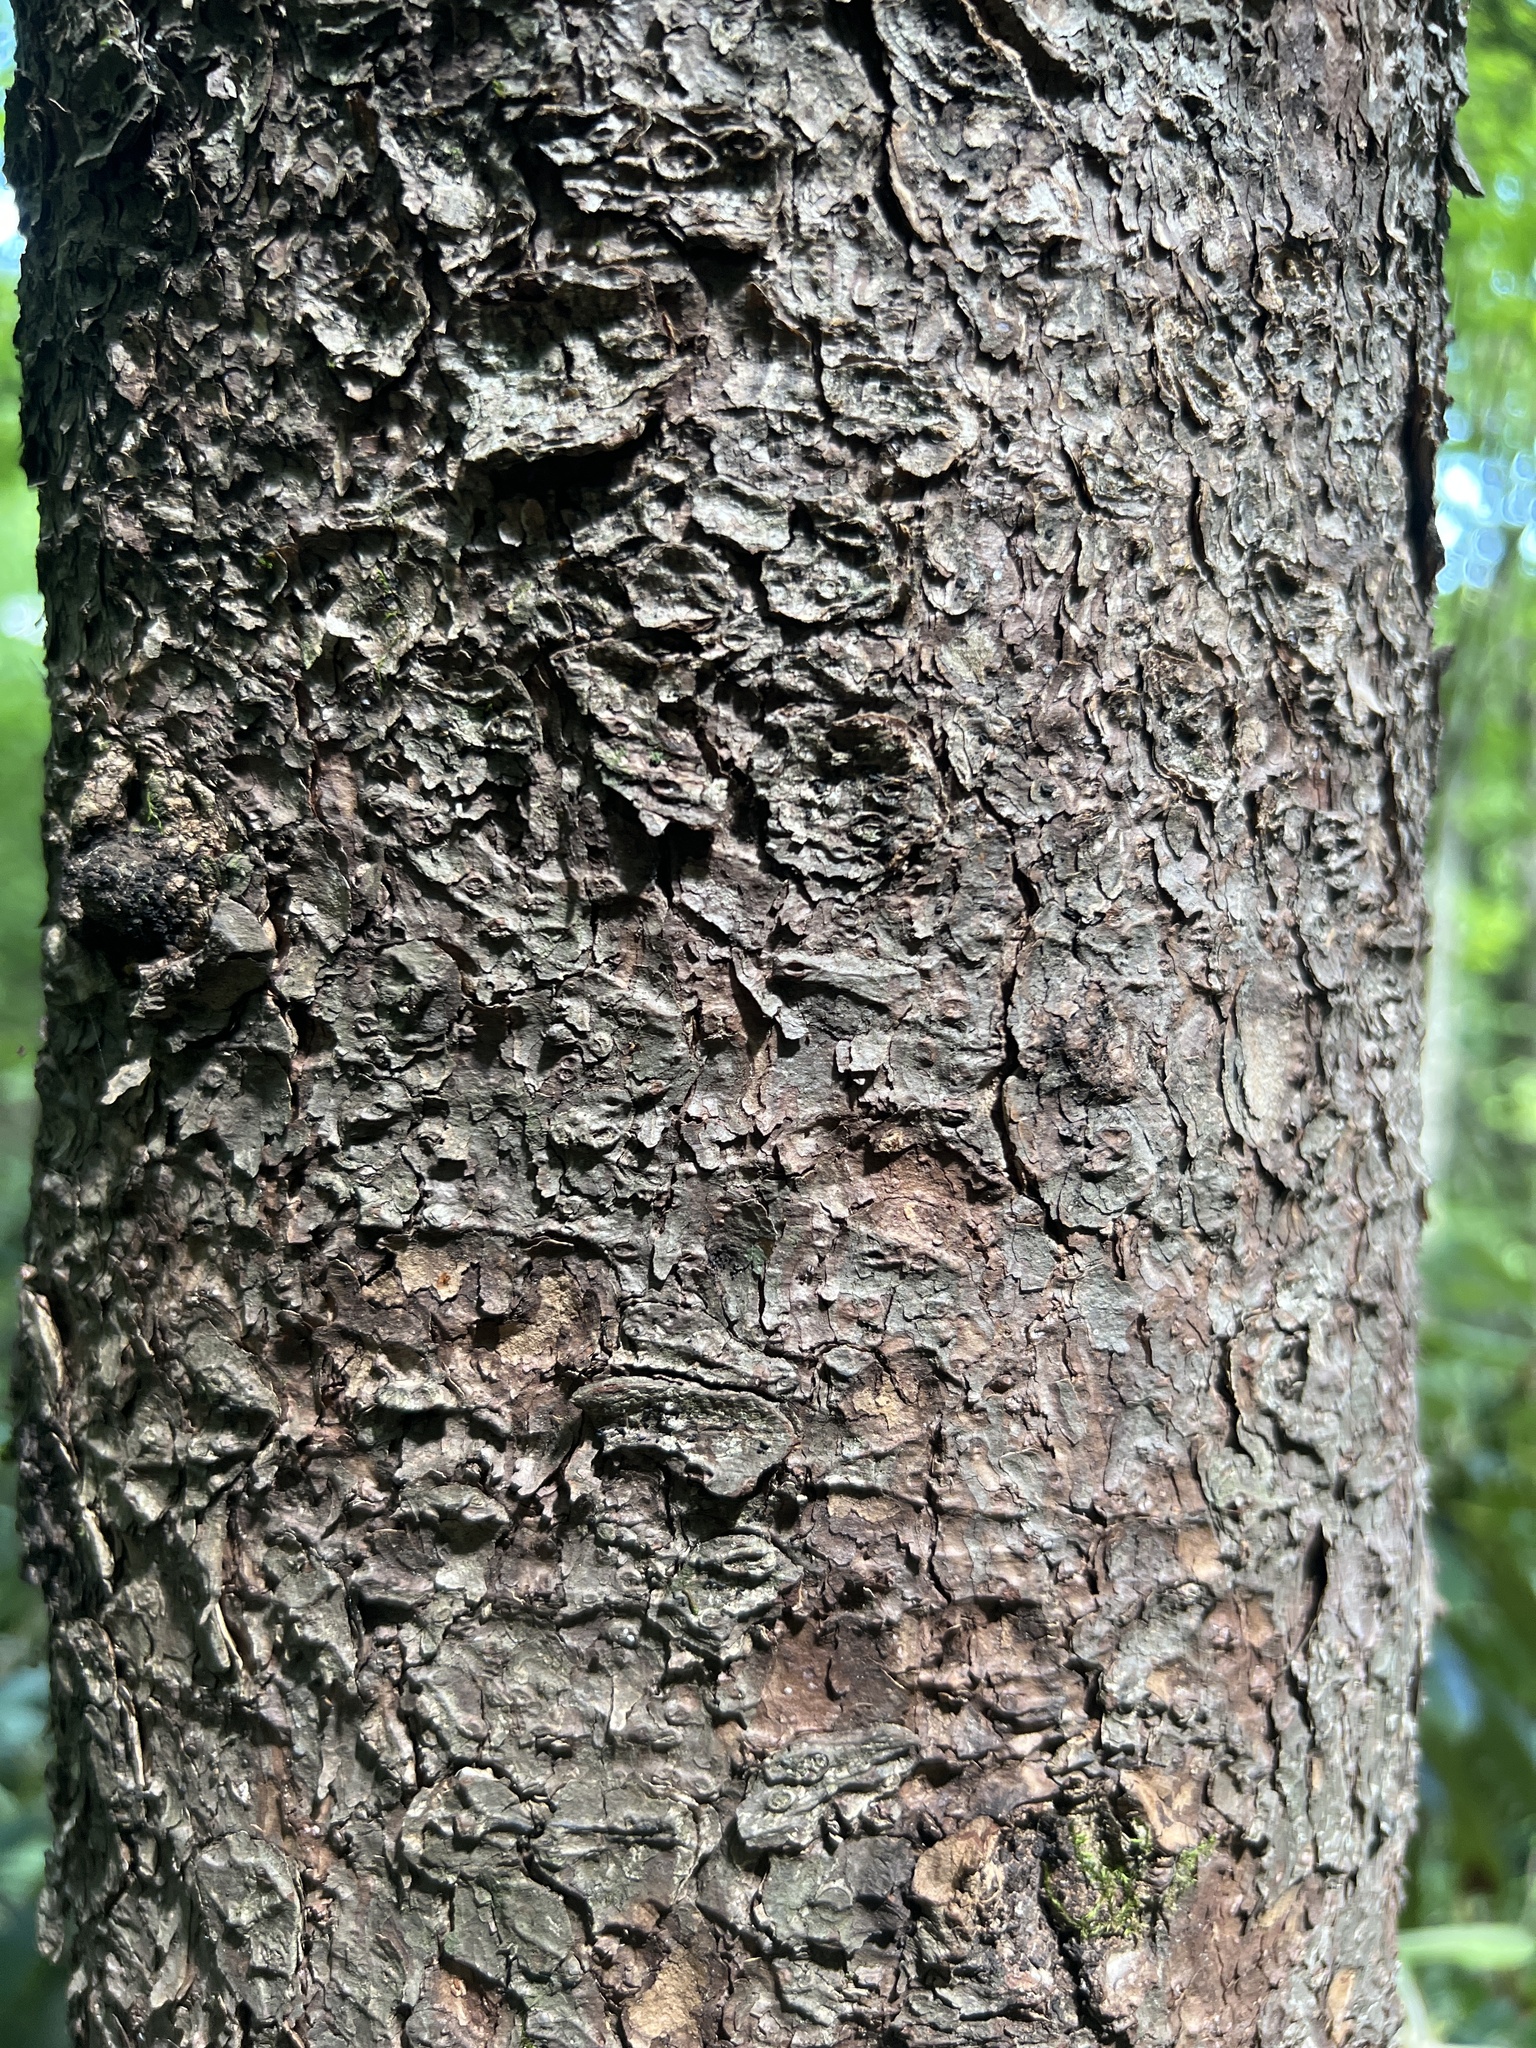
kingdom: Plantae
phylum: Tracheophyta
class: Pinopsida
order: Pinales
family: Pinaceae
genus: Picea
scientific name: Picea rubens
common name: Red spruce
